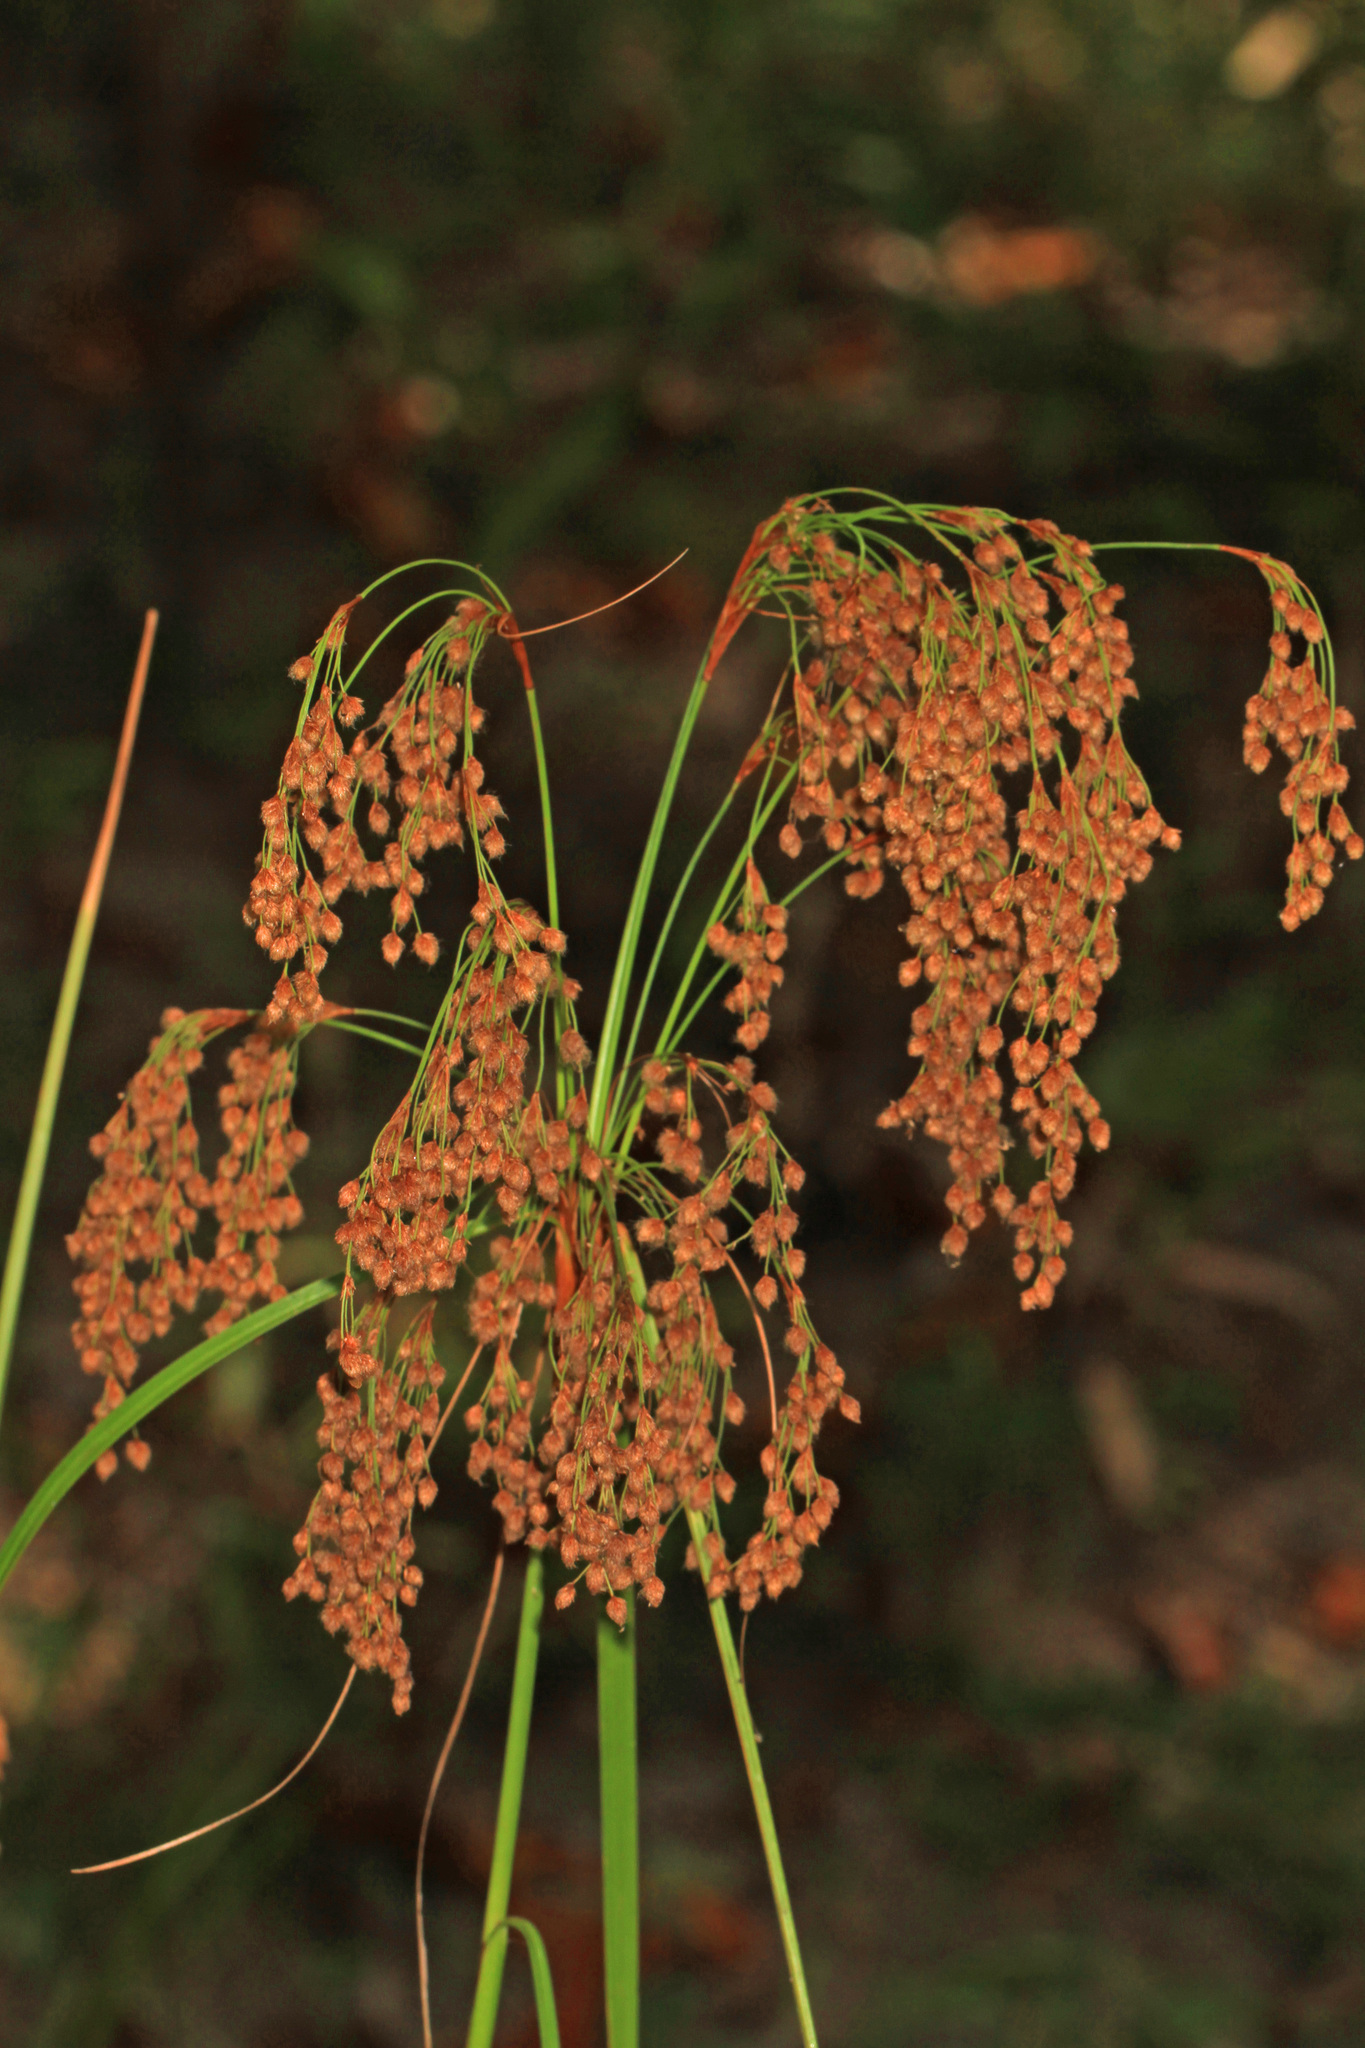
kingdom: Plantae
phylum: Tracheophyta
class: Liliopsida
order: Poales
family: Cyperaceae
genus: Scirpus
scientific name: Scirpus cyperinus
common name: Black-sheathed bulrush
